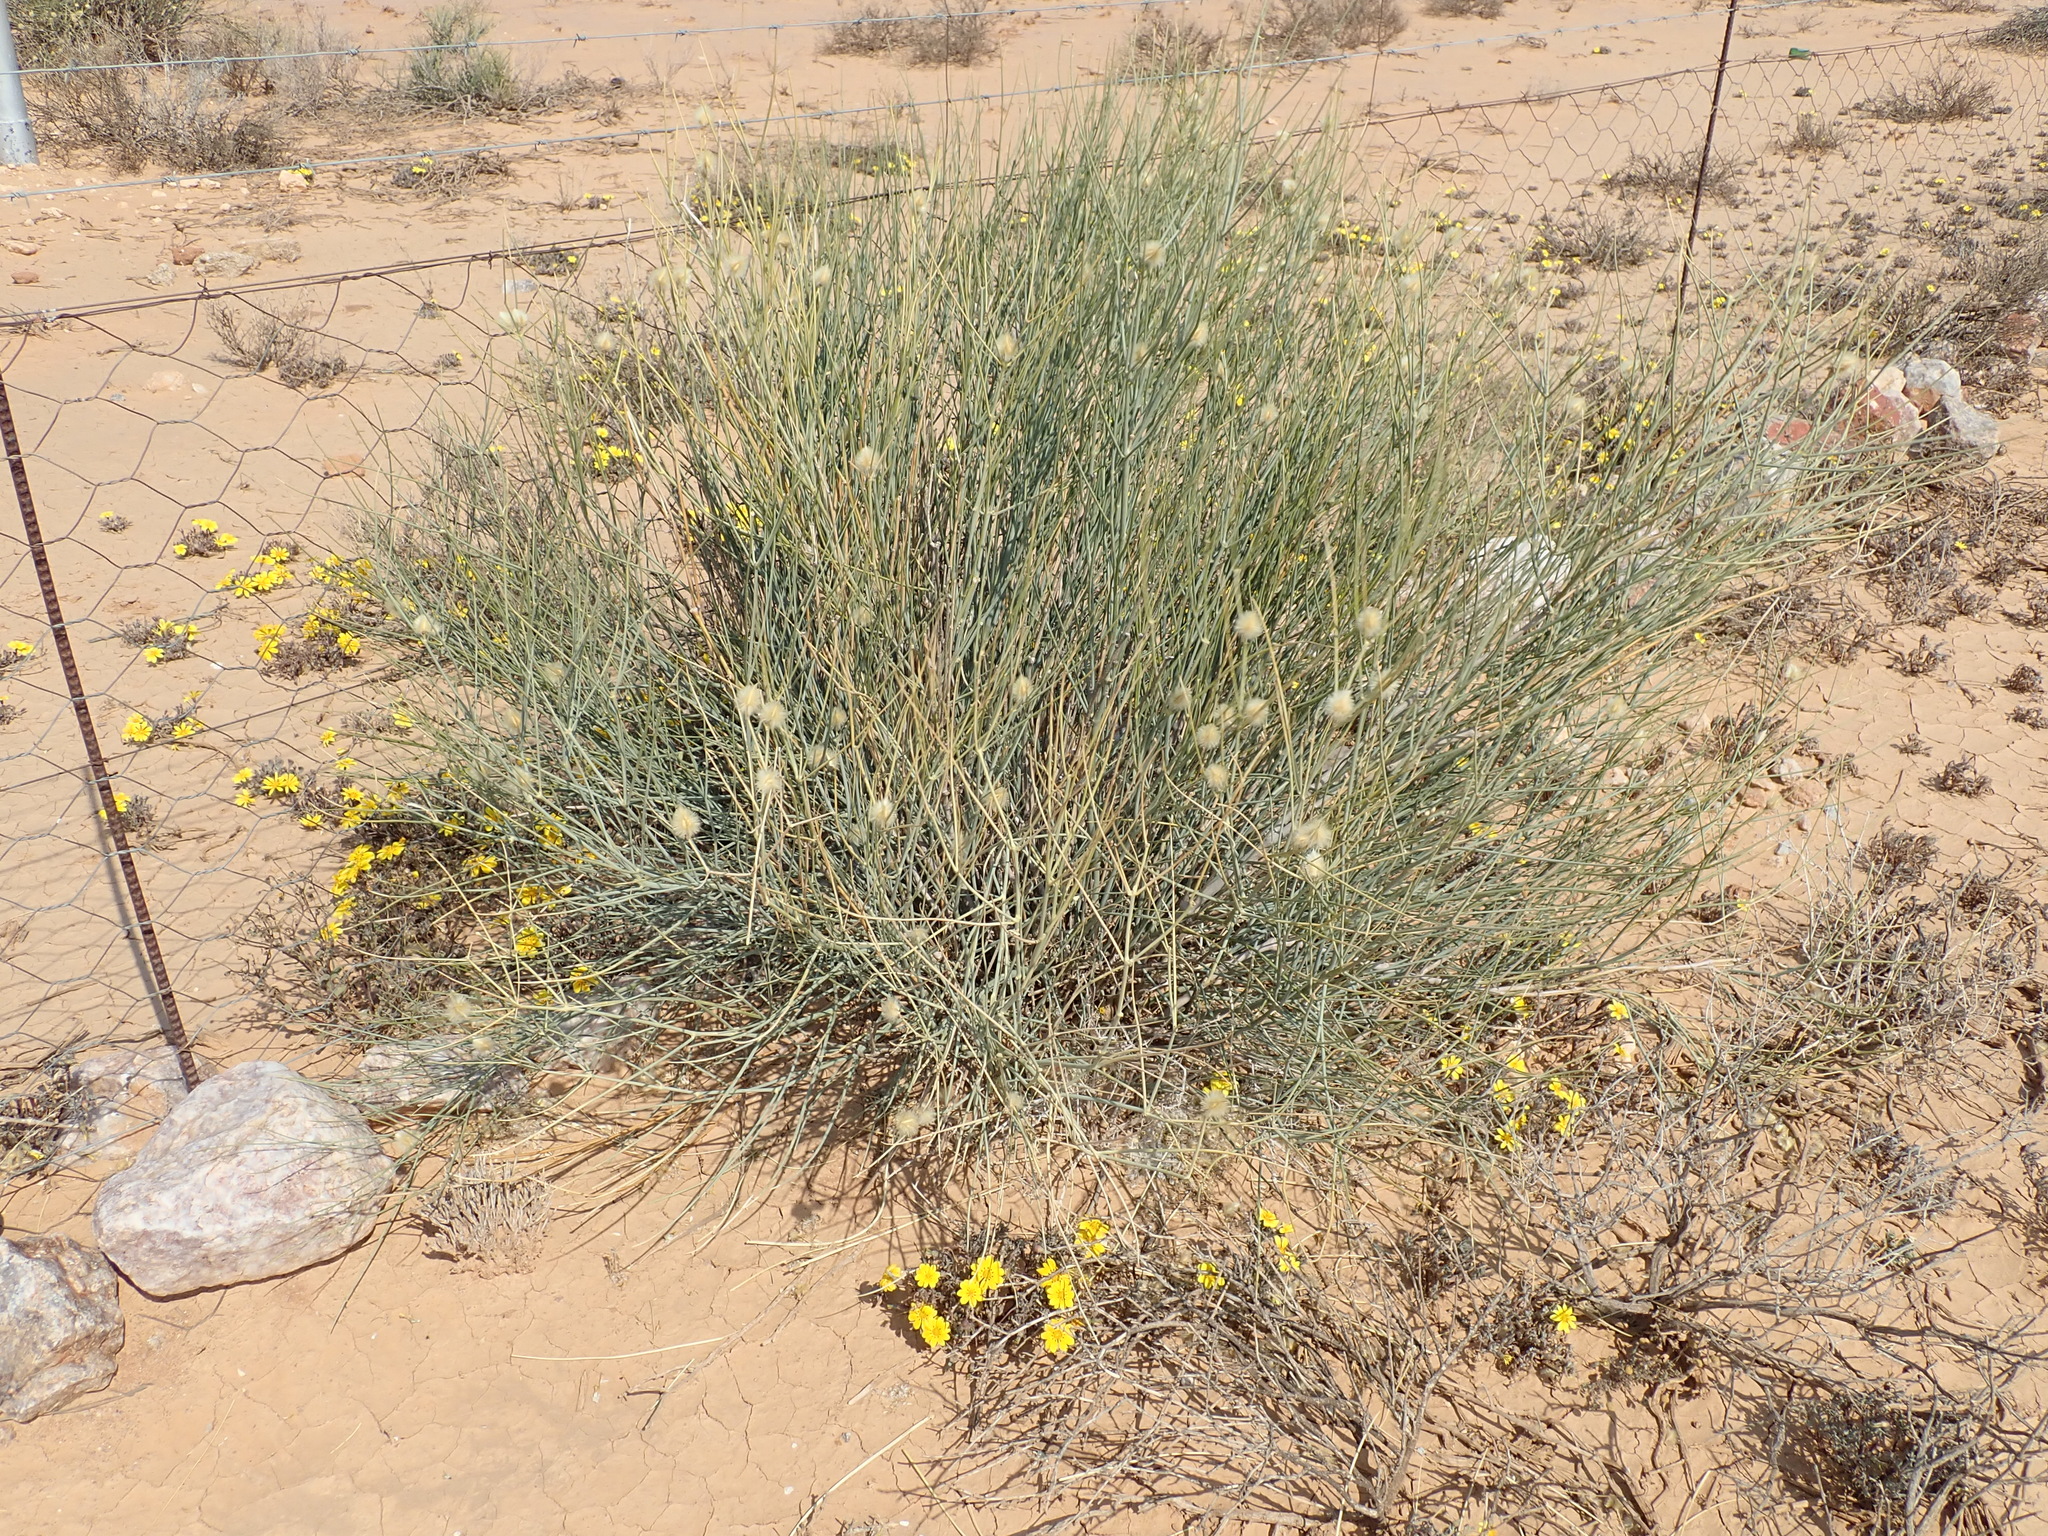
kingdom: Plantae
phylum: Tracheophyta
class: Magnoliopsida
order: Zygophyllales
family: Zygophyllaceae
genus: Sisyndite
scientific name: Sisyndite spartea
